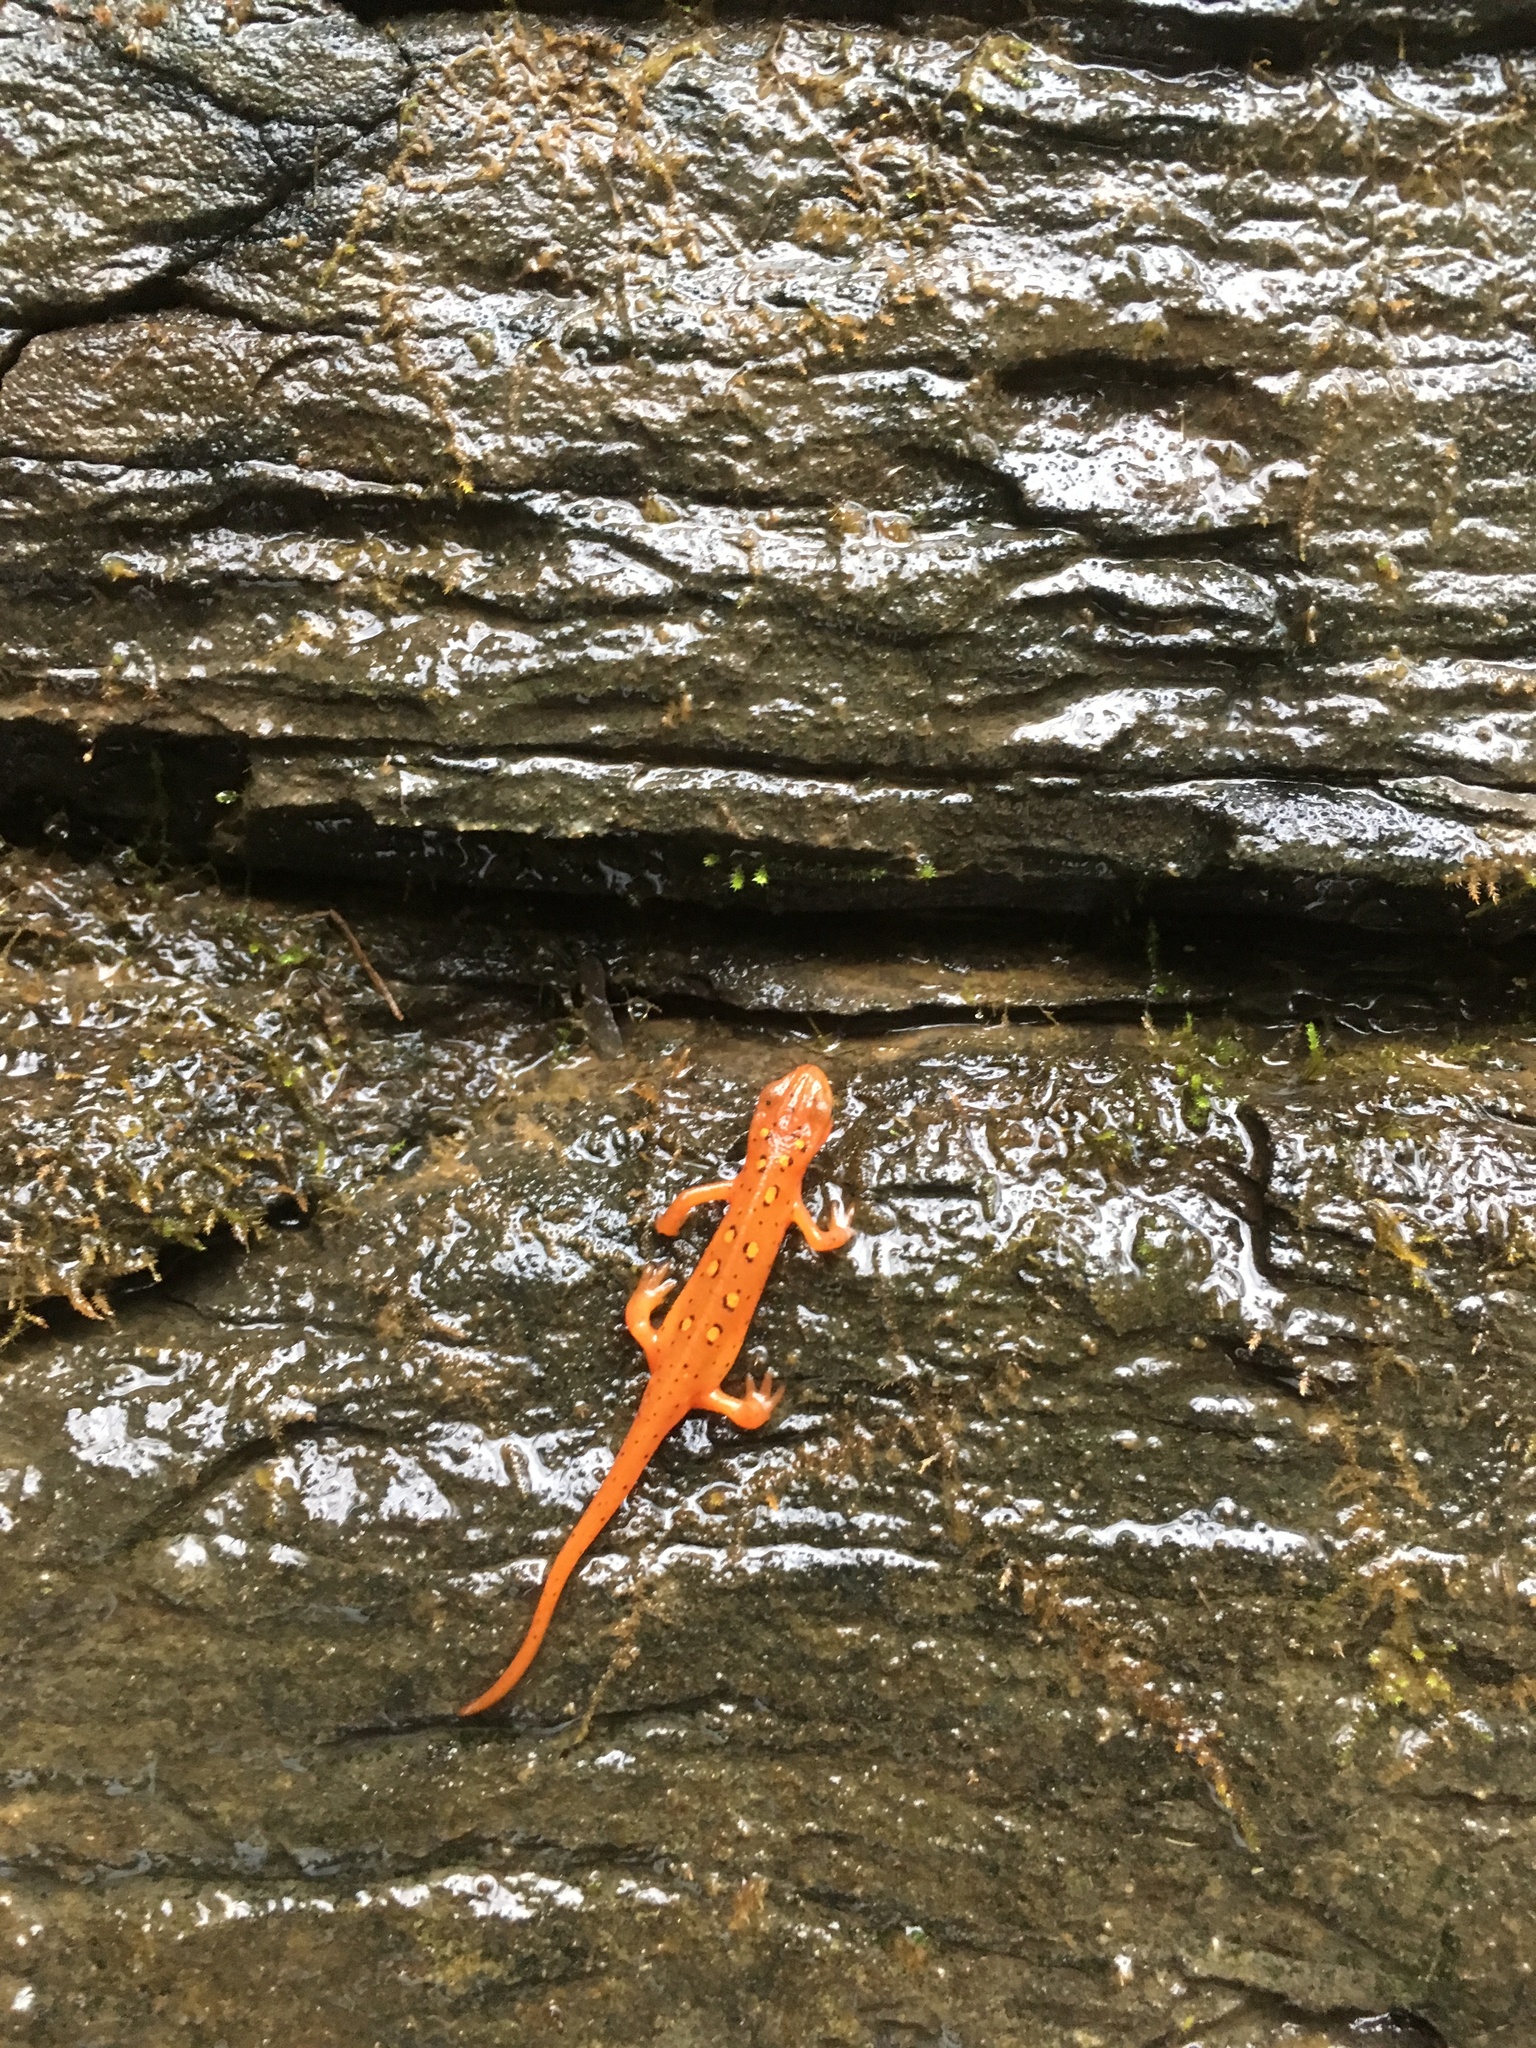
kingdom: Animalia
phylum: Chordata
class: Amphibia
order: Caudata
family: Salamandridae
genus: Notophthalmus
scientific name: Notophthalmus viridescens
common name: Eastern newt
